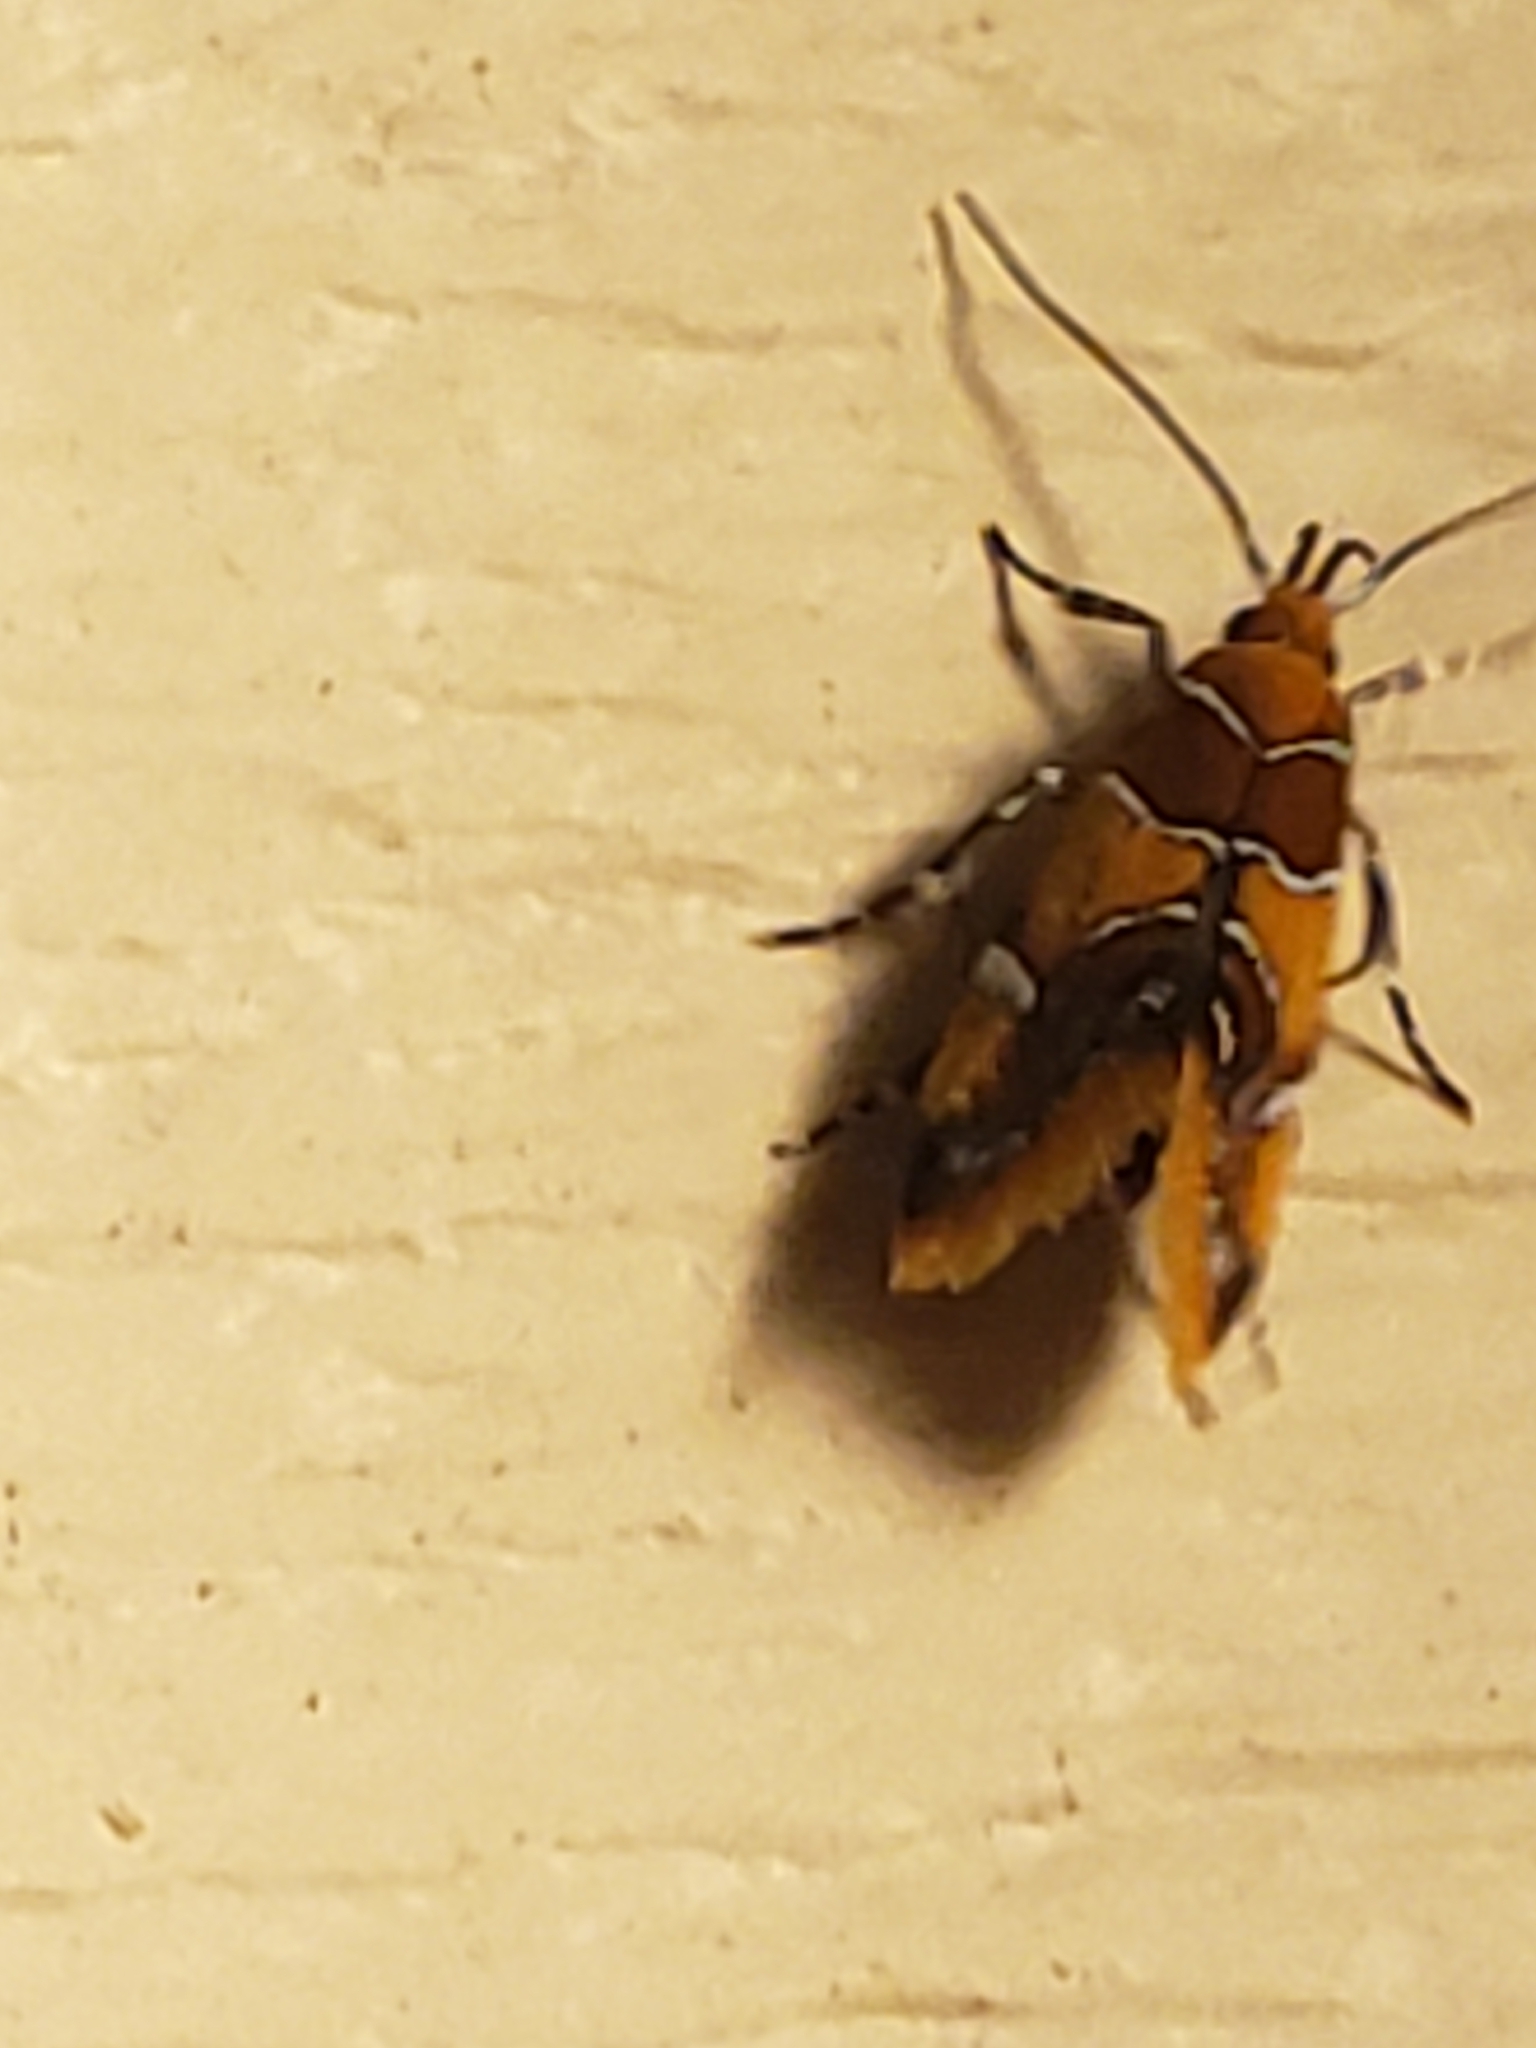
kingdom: Animalia
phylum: Arthropoda
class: Insecta
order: Lepidoptera
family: Oecophoridae
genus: Callima
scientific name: Callima argenticinctella
